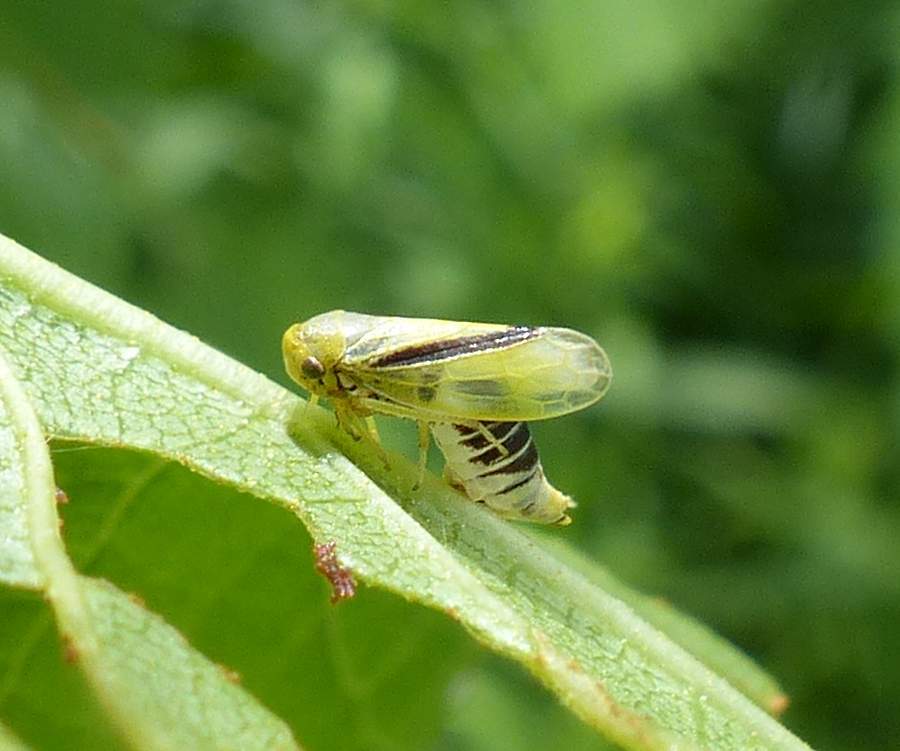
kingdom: Animalia
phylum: Arthropoda
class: Insecta
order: Hemiptera
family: Cicadellidae
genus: Oncopsis
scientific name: Oncopsis variabilis
